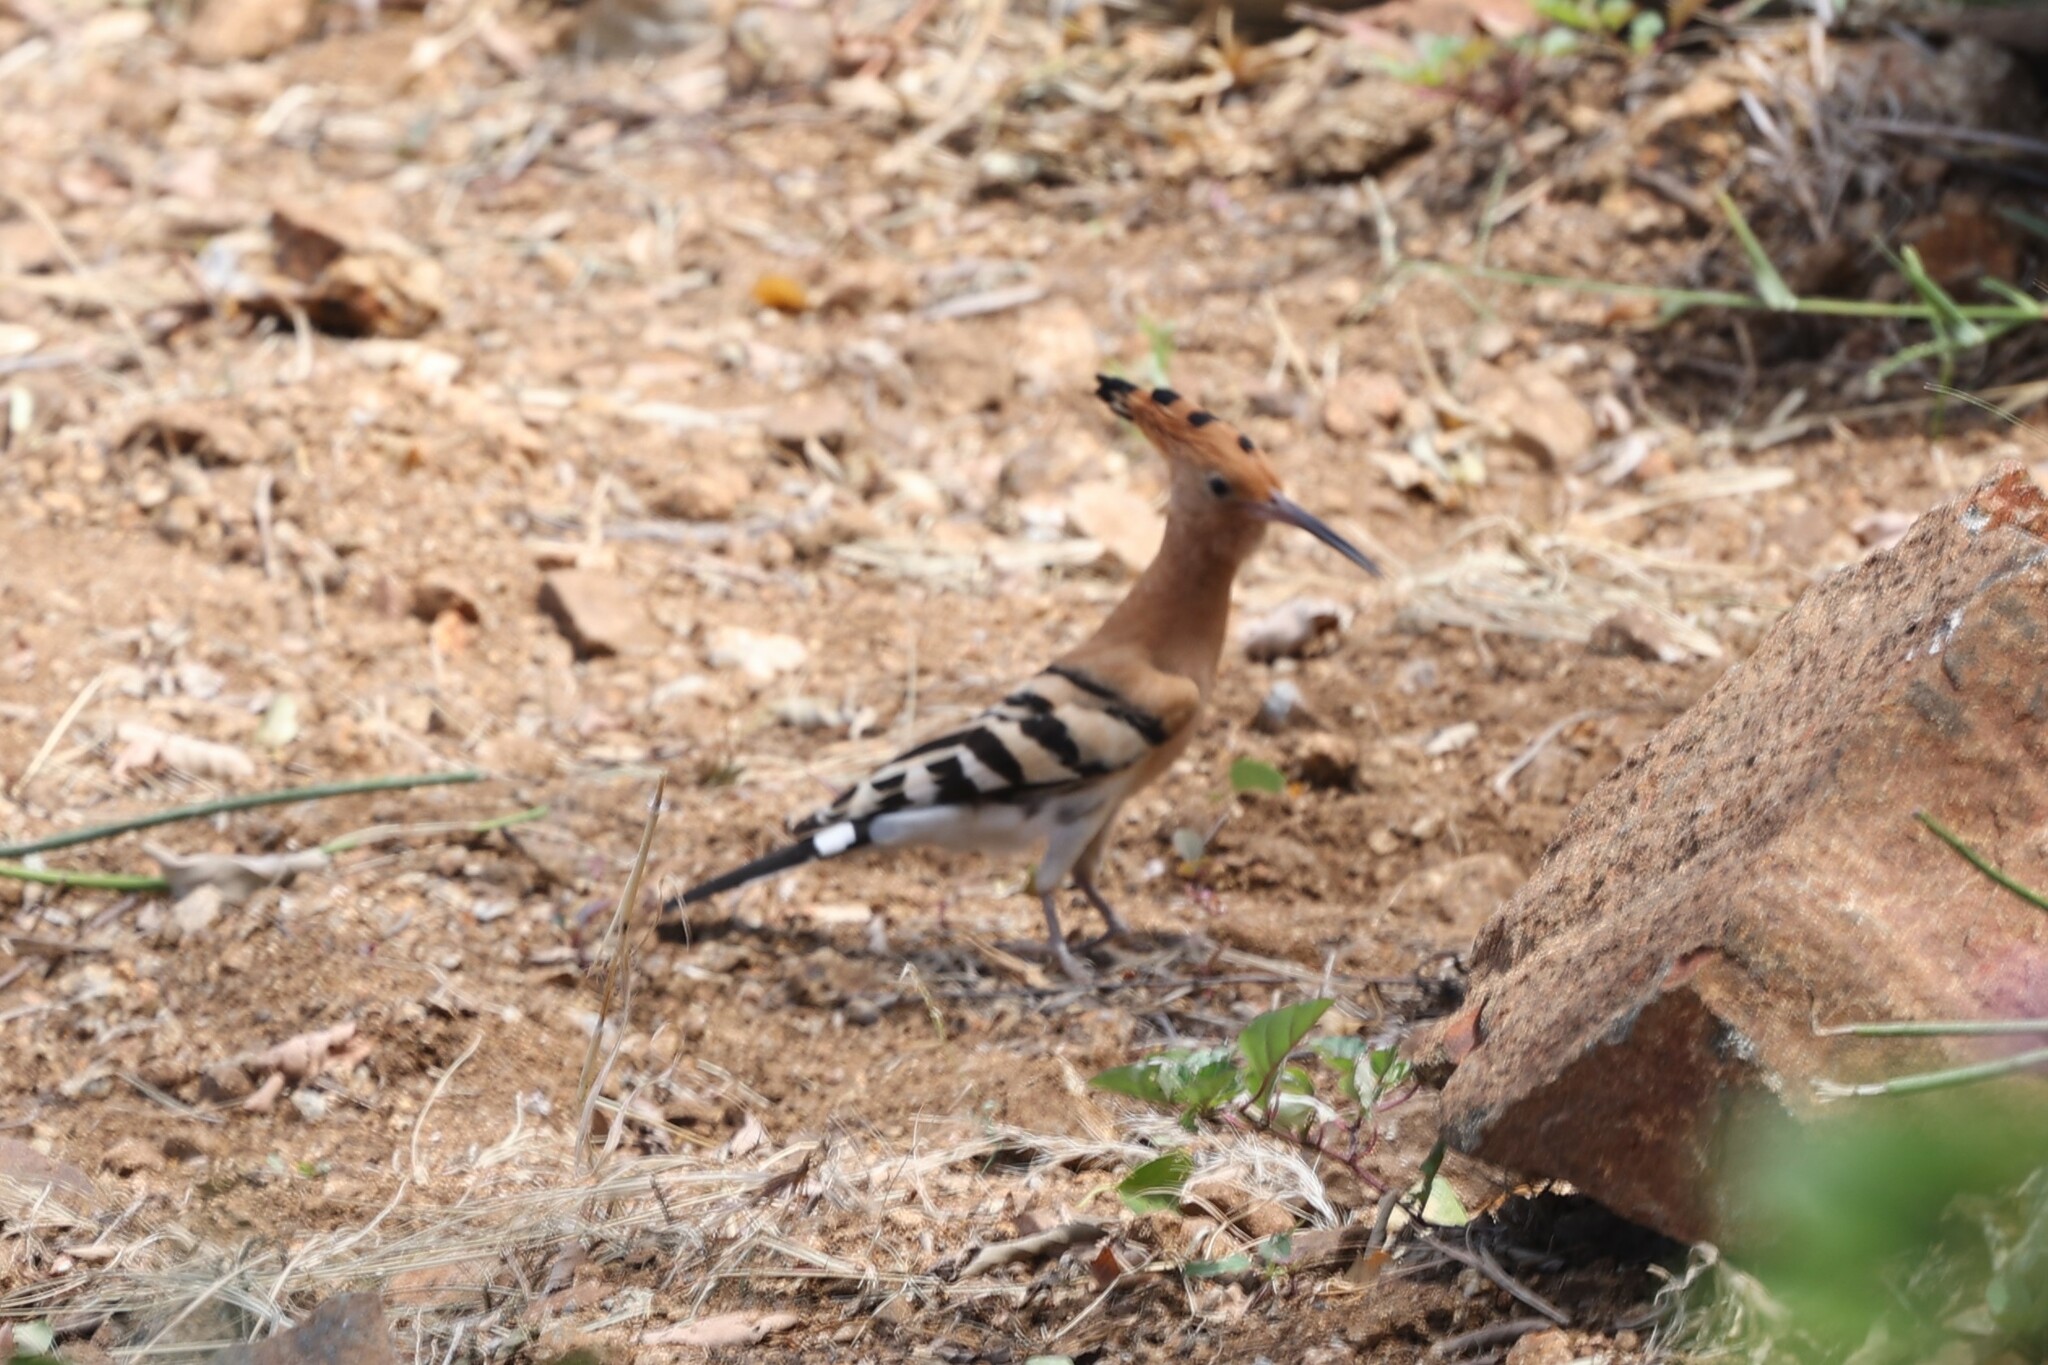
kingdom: Animalia
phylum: Chordata
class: Aves
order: Bucerotiformes
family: Upupidae
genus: Upupa
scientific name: Upupa africana
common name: African hoopoe
